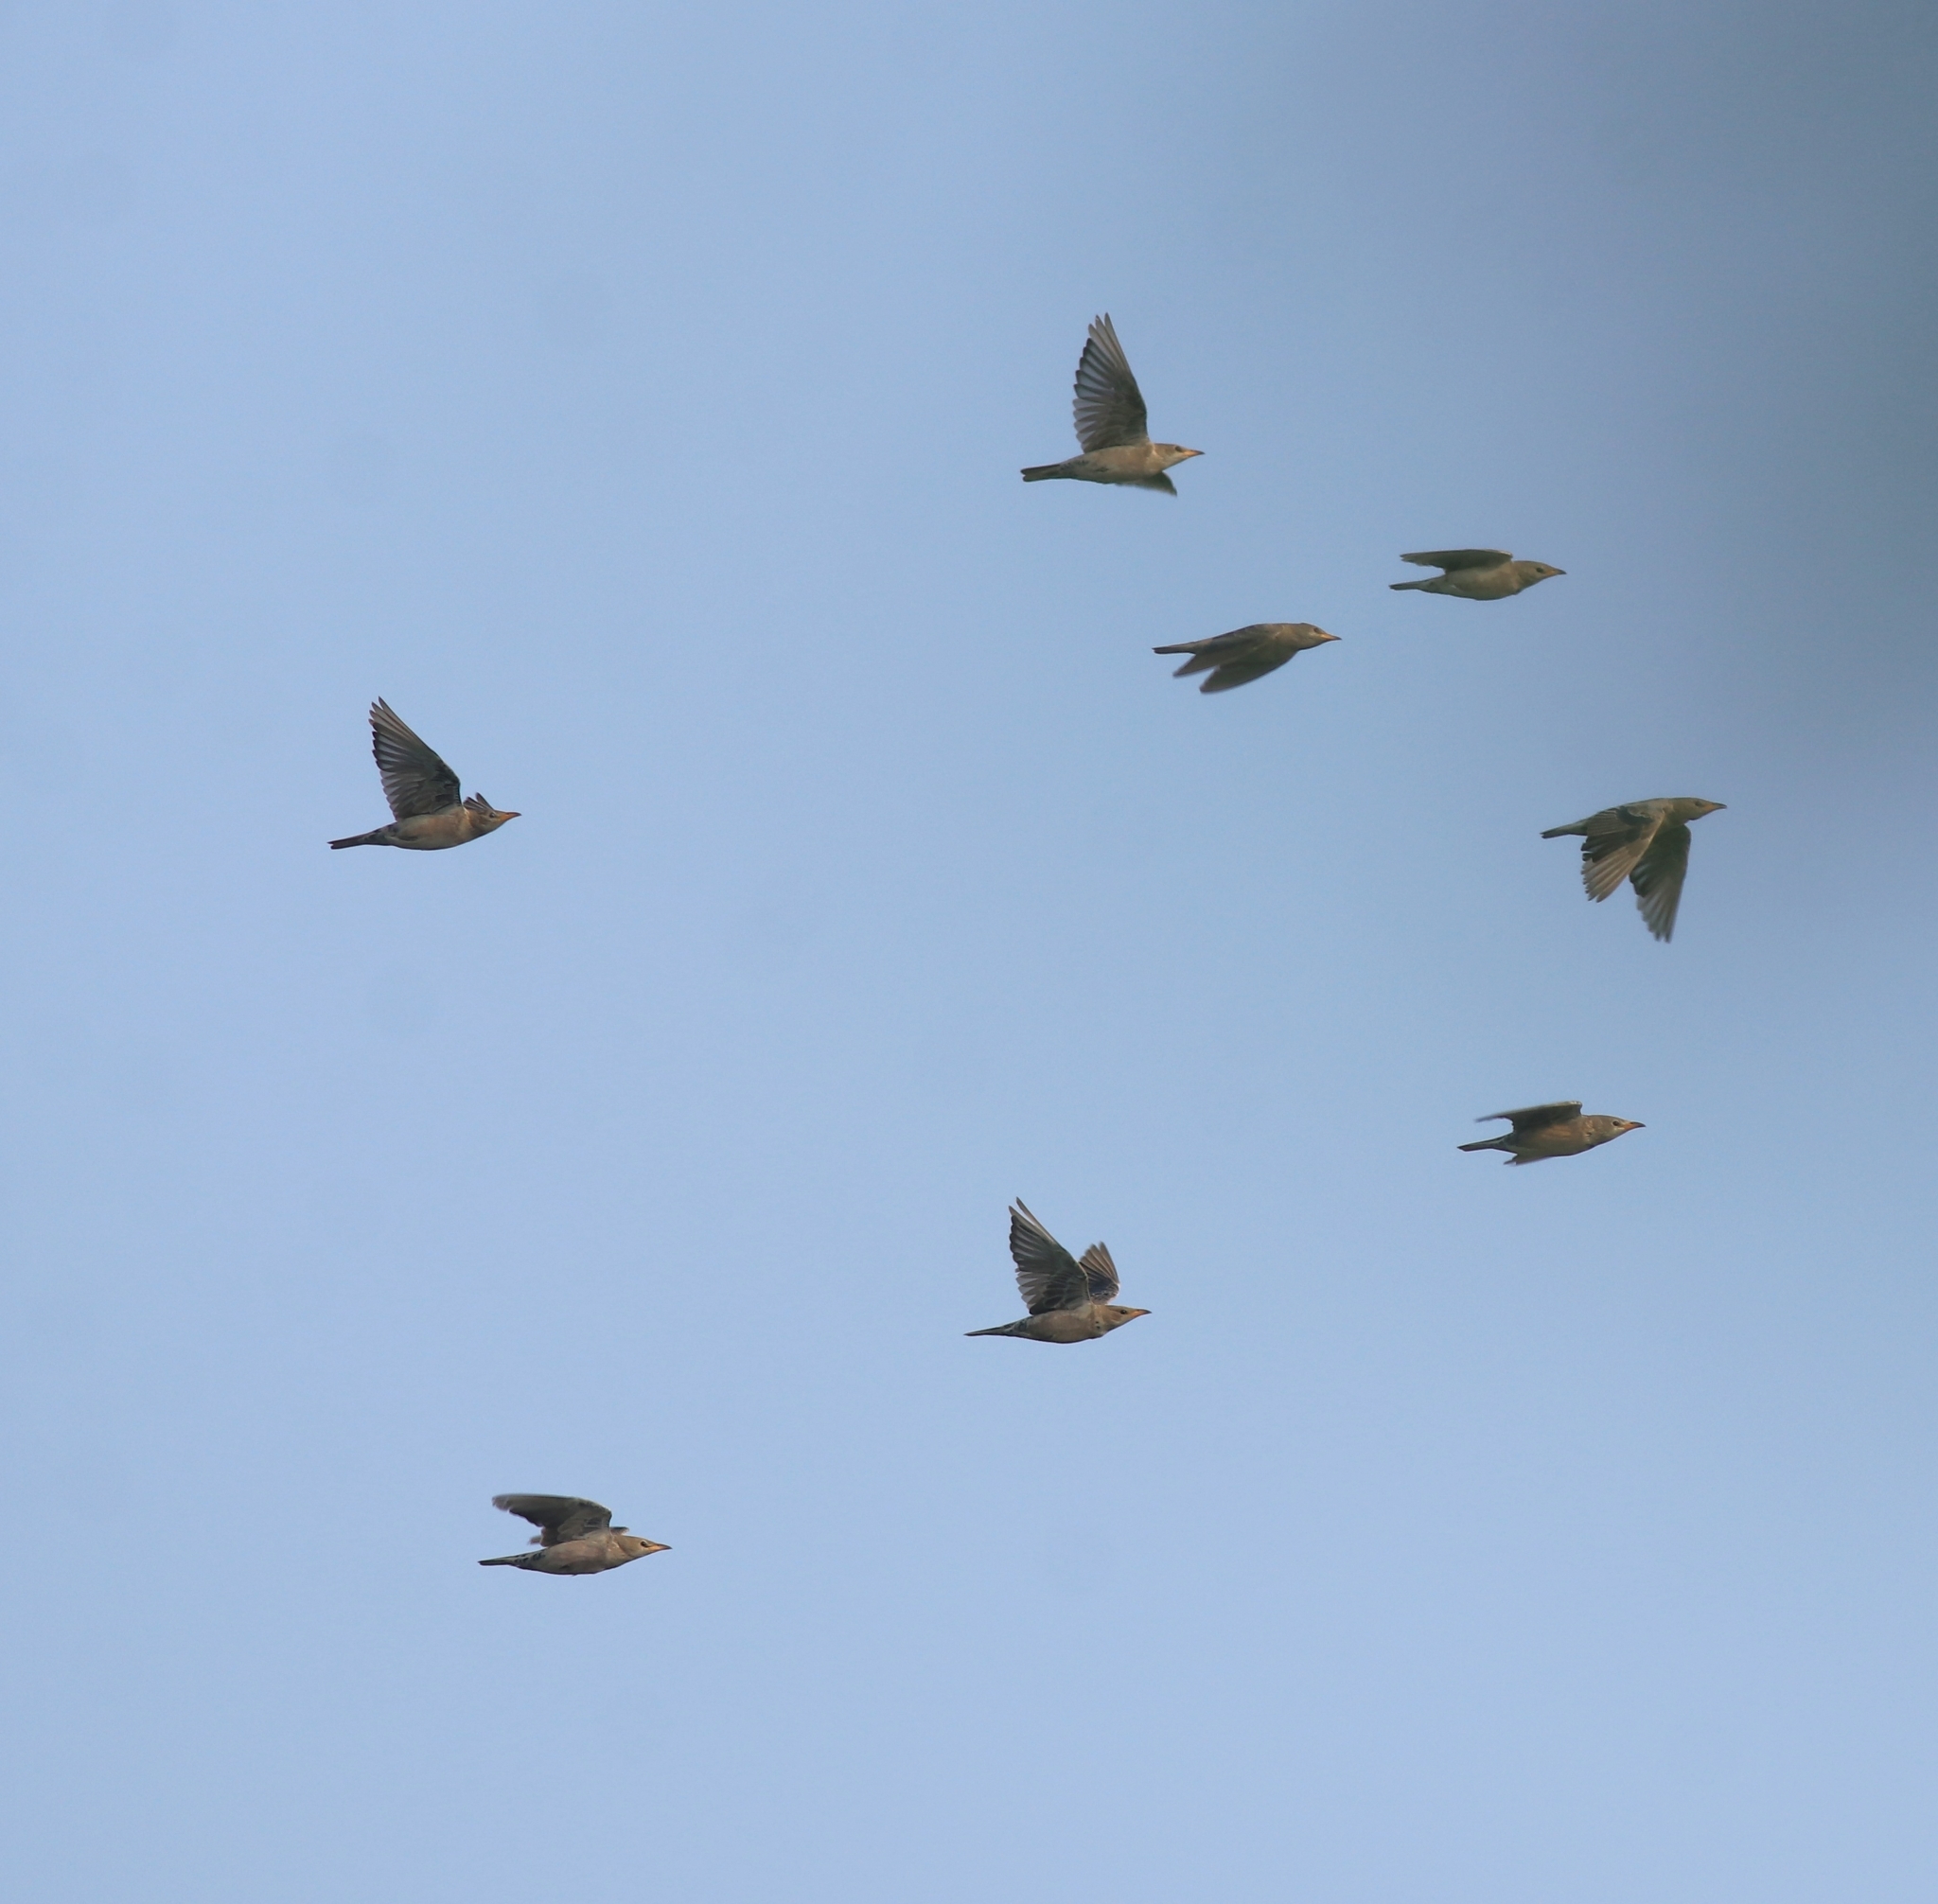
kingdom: Animalia
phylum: Chordata
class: Aves
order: Passeriformes
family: Sturnidae
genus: Pastor
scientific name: Pastor roseus
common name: Rosy starling
